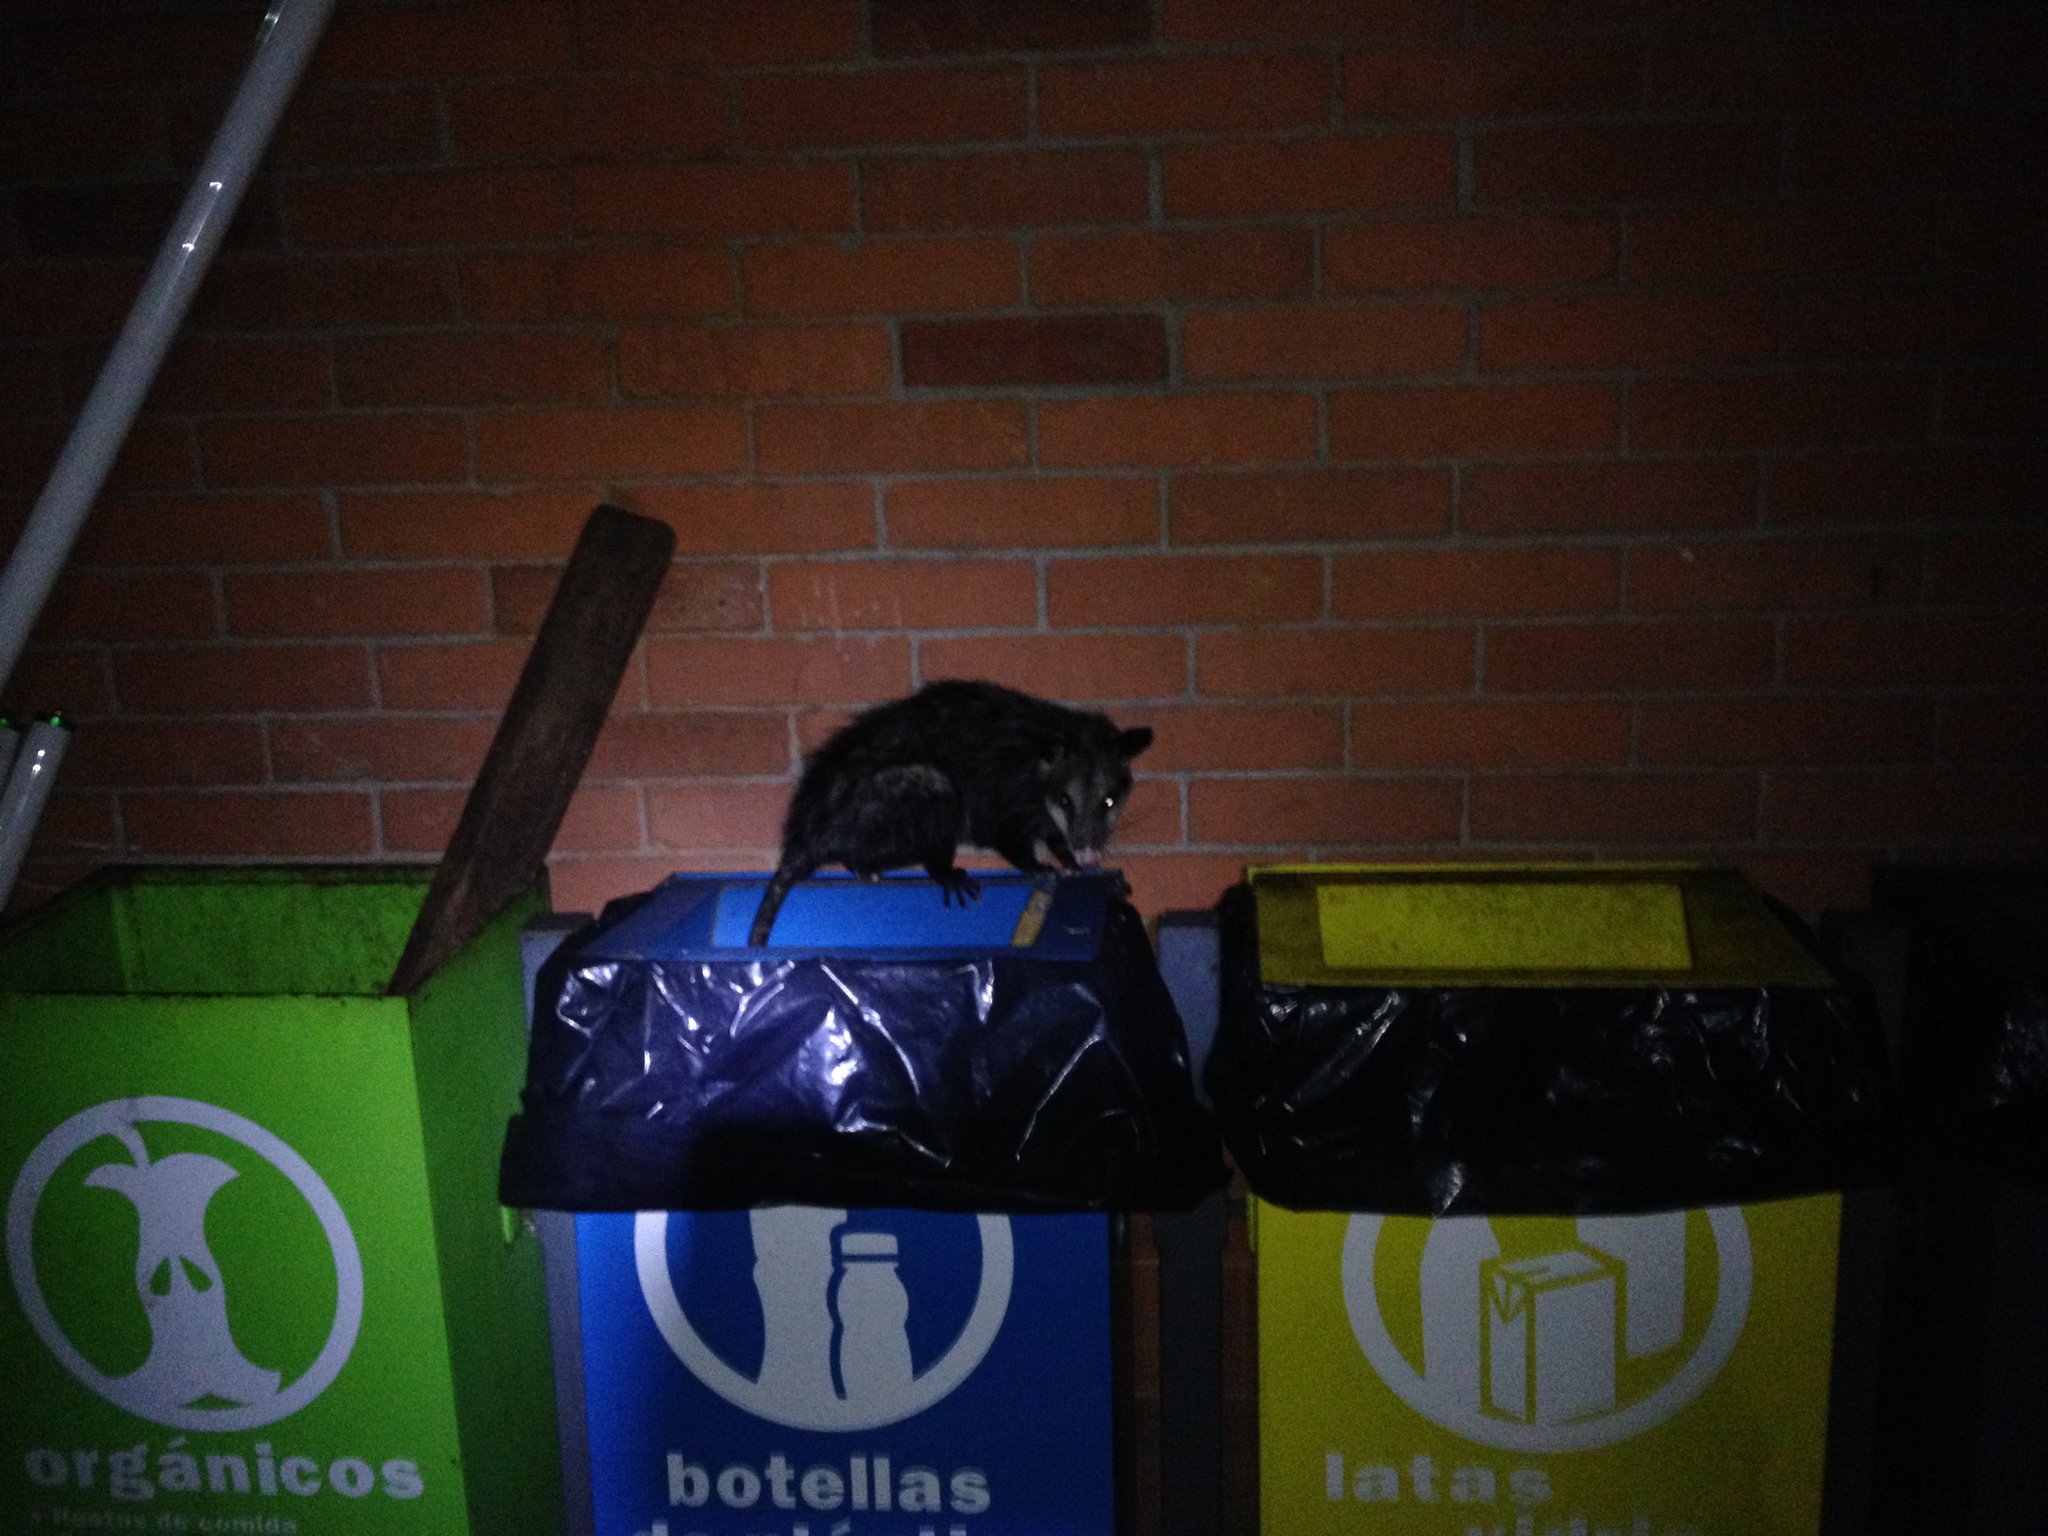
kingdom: Animalia
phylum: Chordata
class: Mammalia
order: Didelphimorphia
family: Didelphidae
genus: Didelphis
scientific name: Didelphis virginiana
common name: Virginia opossum
